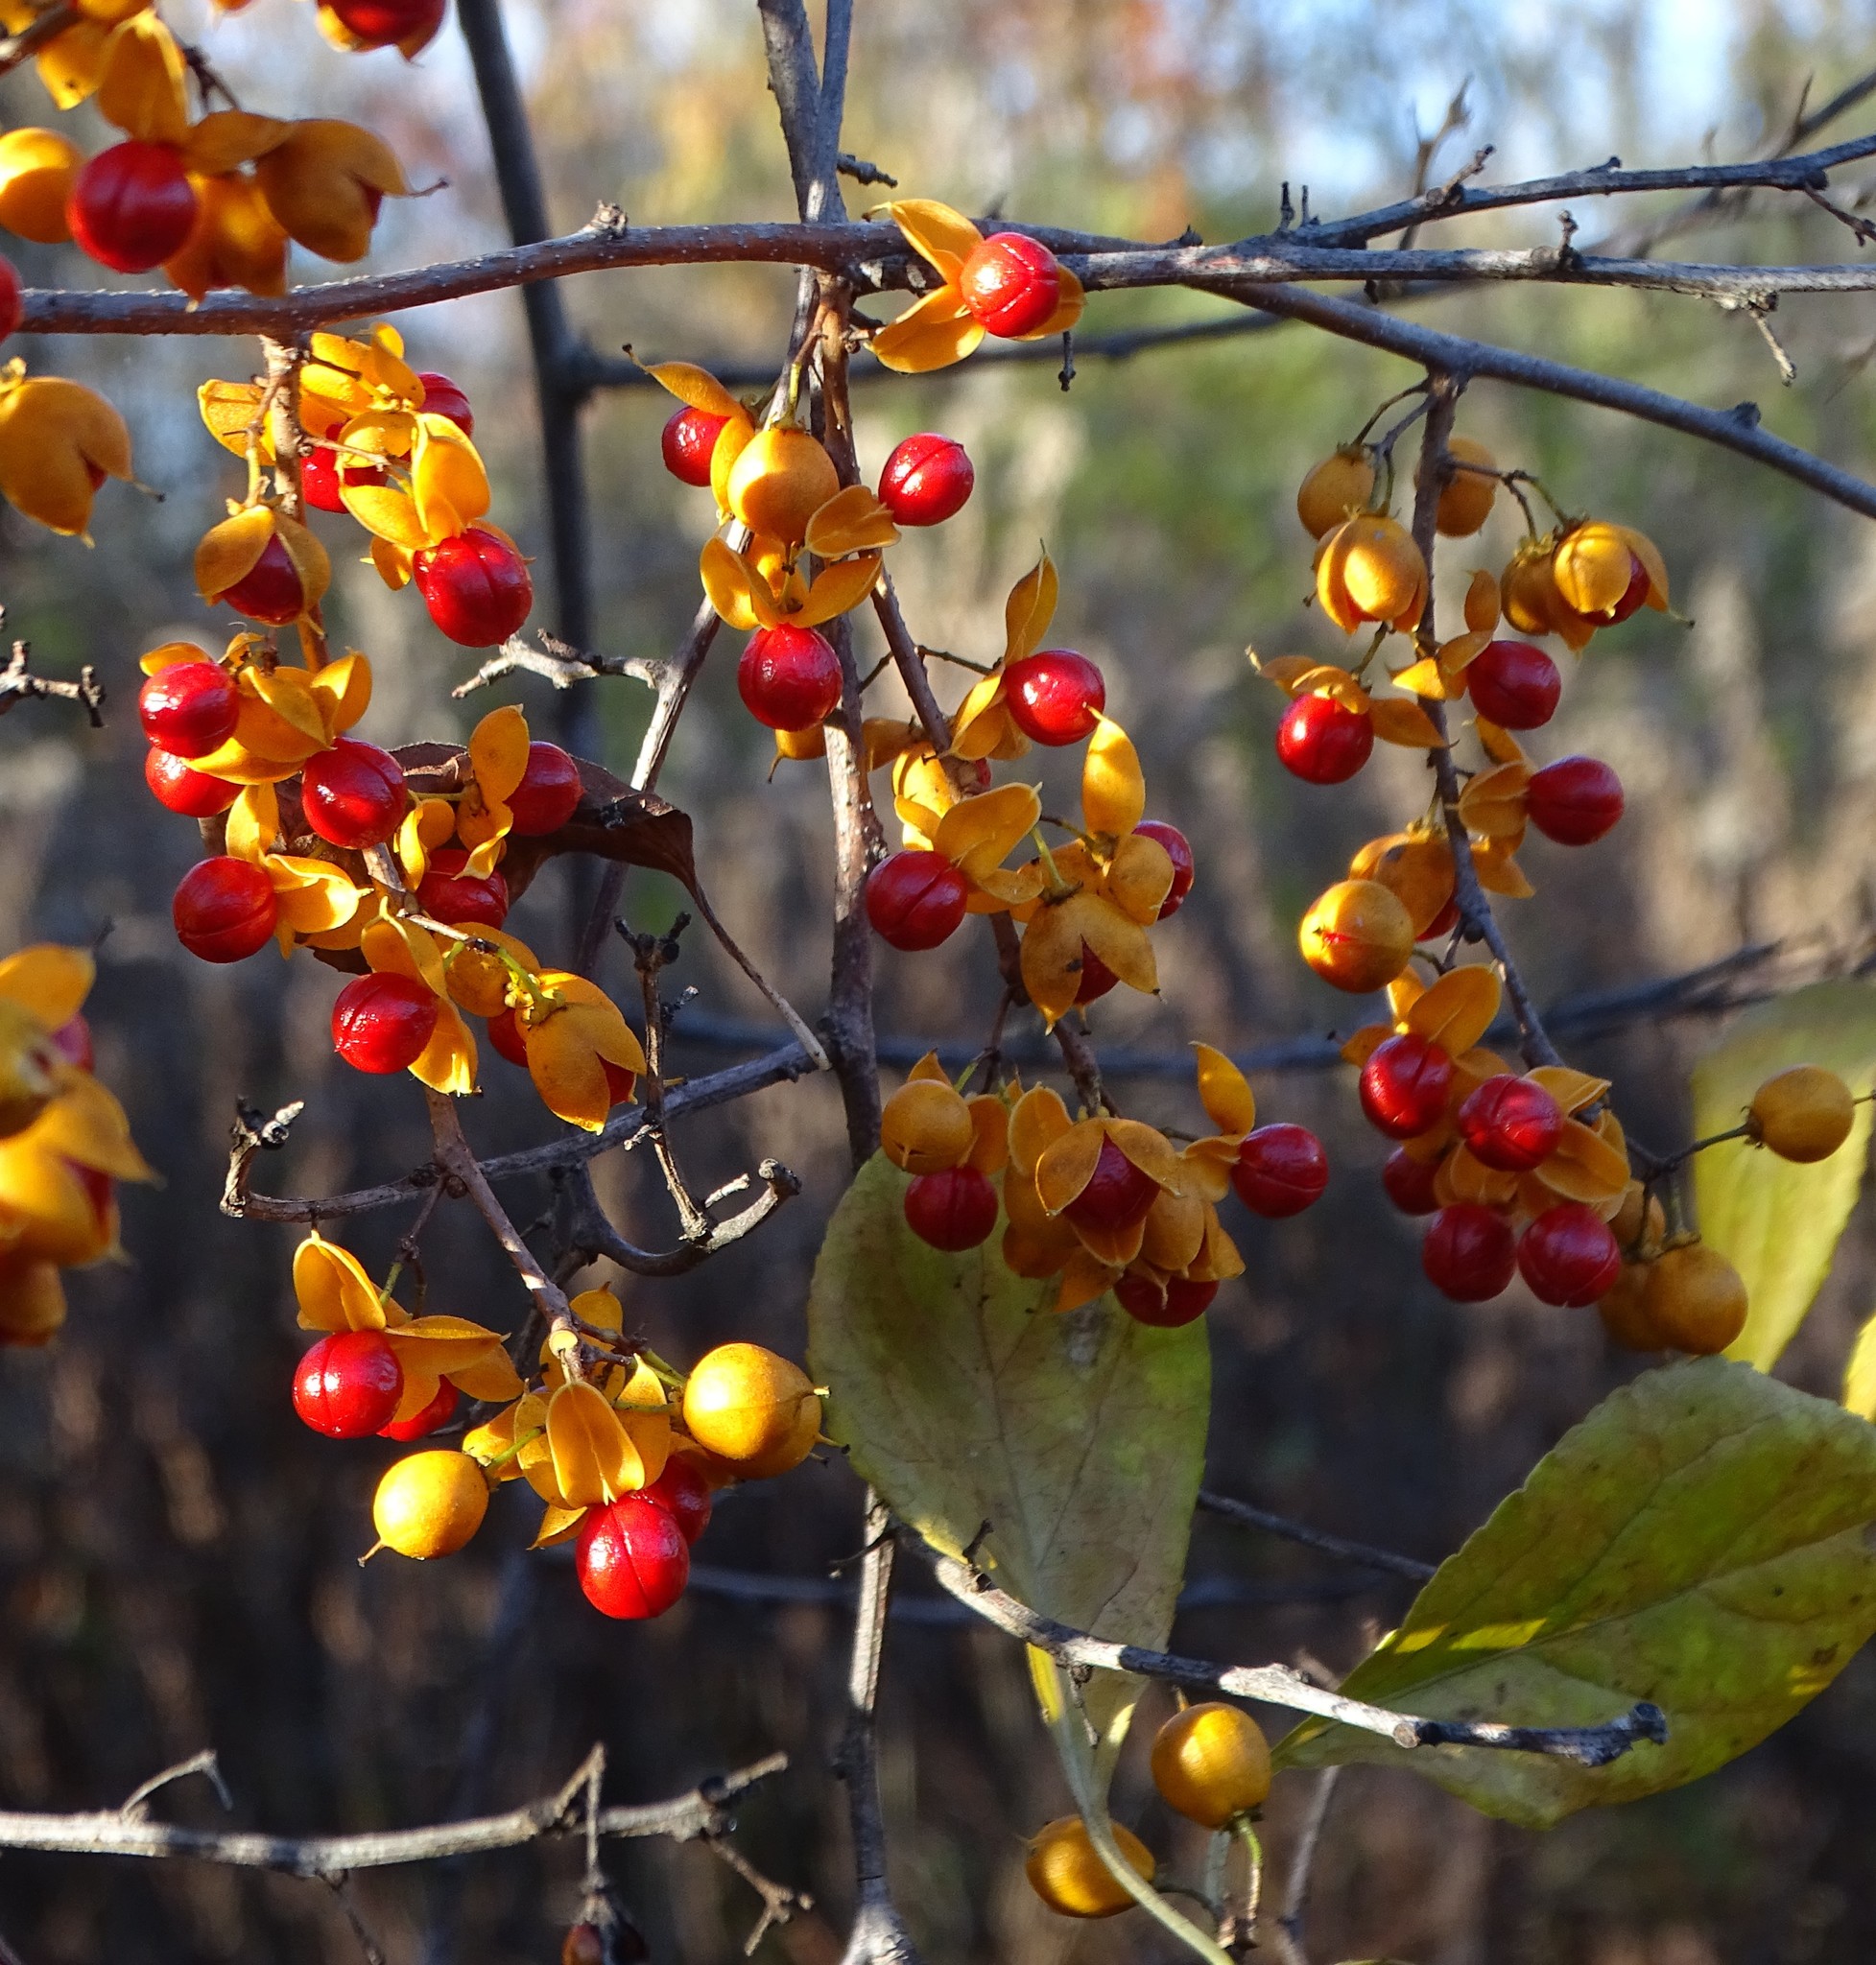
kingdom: Plantae
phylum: Tracheophyta
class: Magnoliopsida
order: Celastrales
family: Celastraceae
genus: Celastrus
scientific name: Celastrus orbiculatus
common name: Oriental bittersweet
